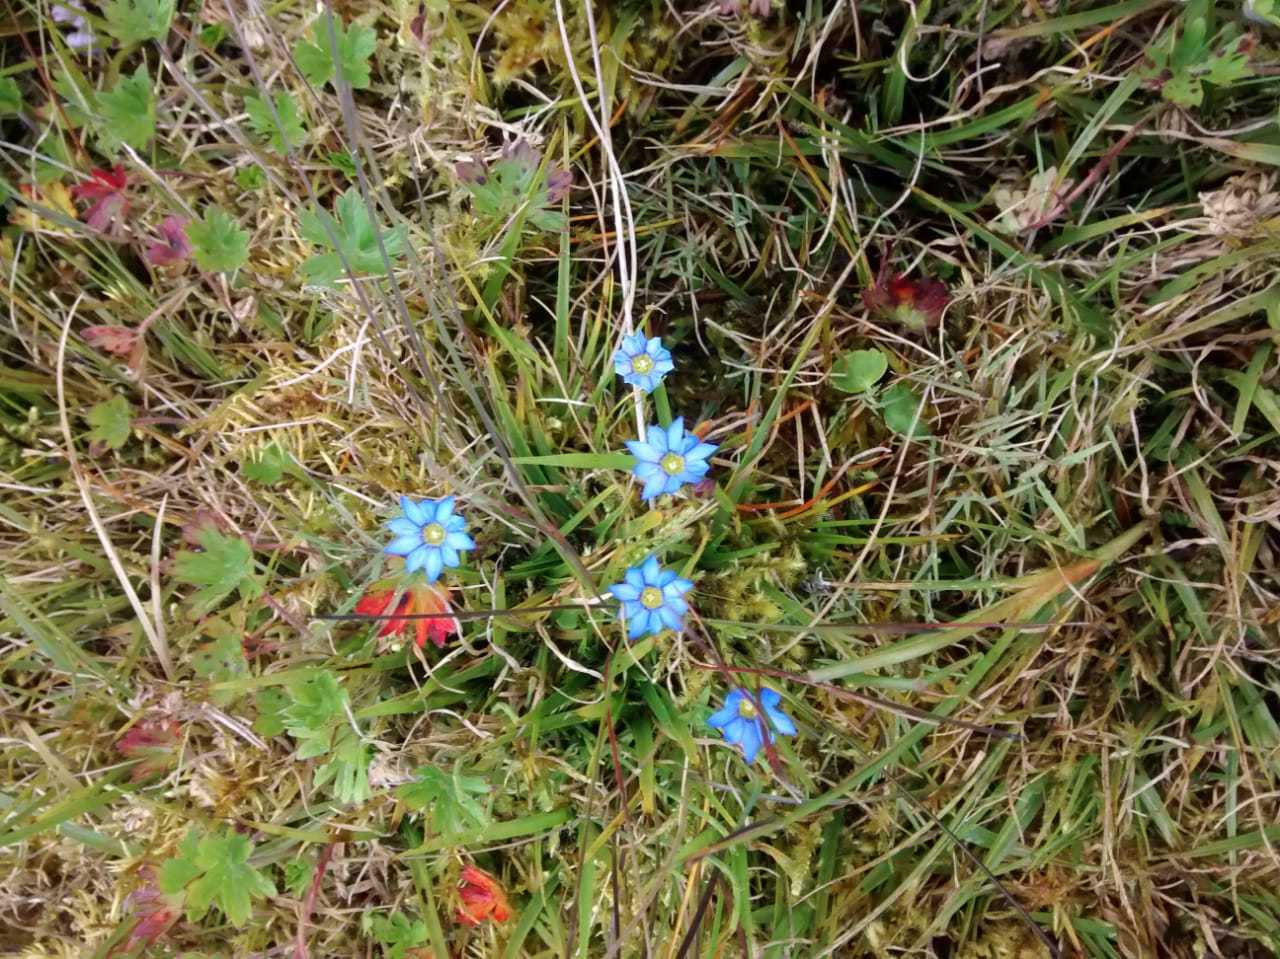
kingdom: Plantae
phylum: Tracheophyta
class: Magnoliopsida
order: Gentianales
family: Gentianaceae
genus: Gentiana
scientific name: Gentiana sedifolia
